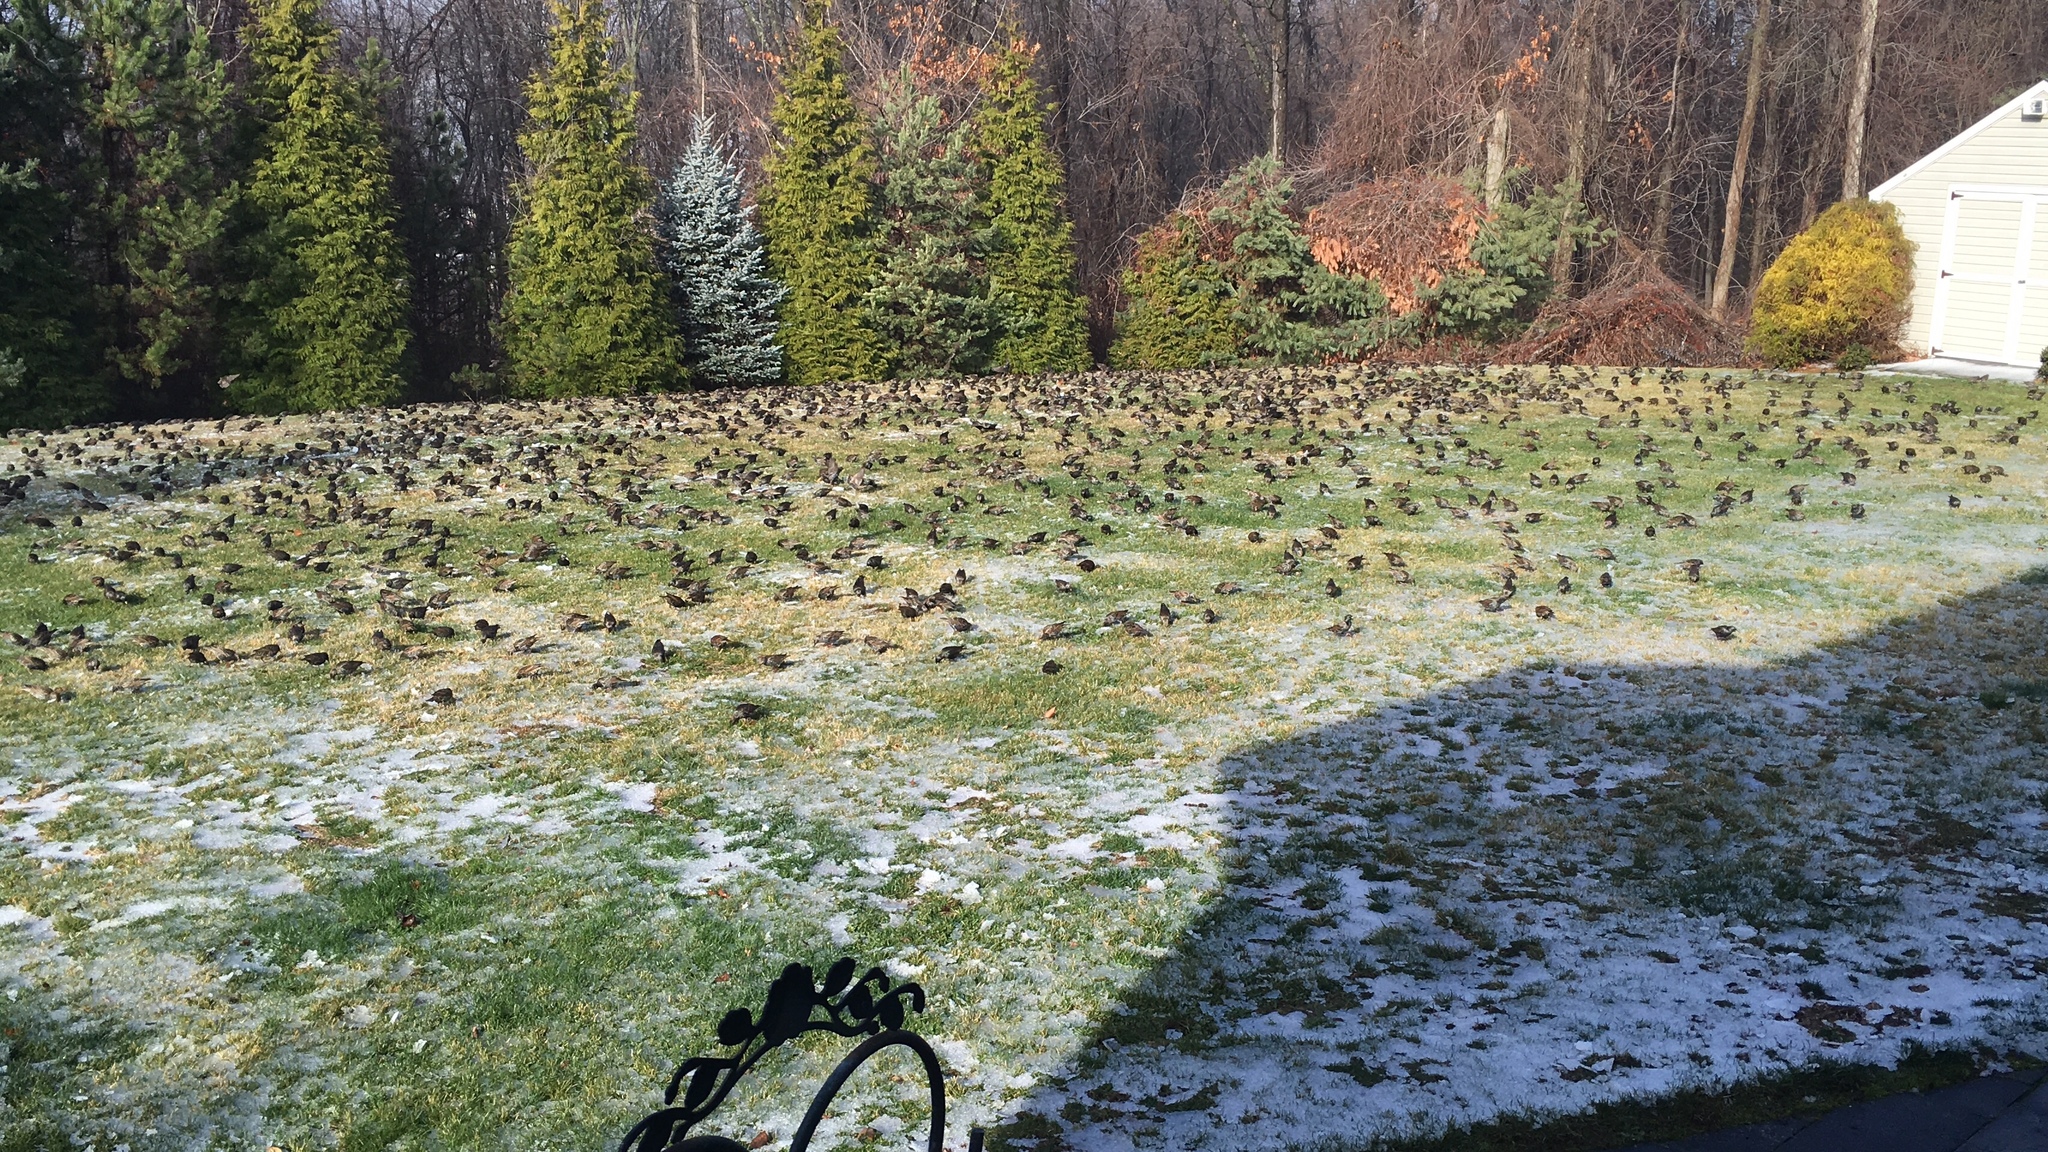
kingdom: Animalia
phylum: Chordata
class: Aves
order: Passeriformes
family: Sturnidae
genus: Sturnus
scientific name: Sturnus vulgaris
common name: Common starling
